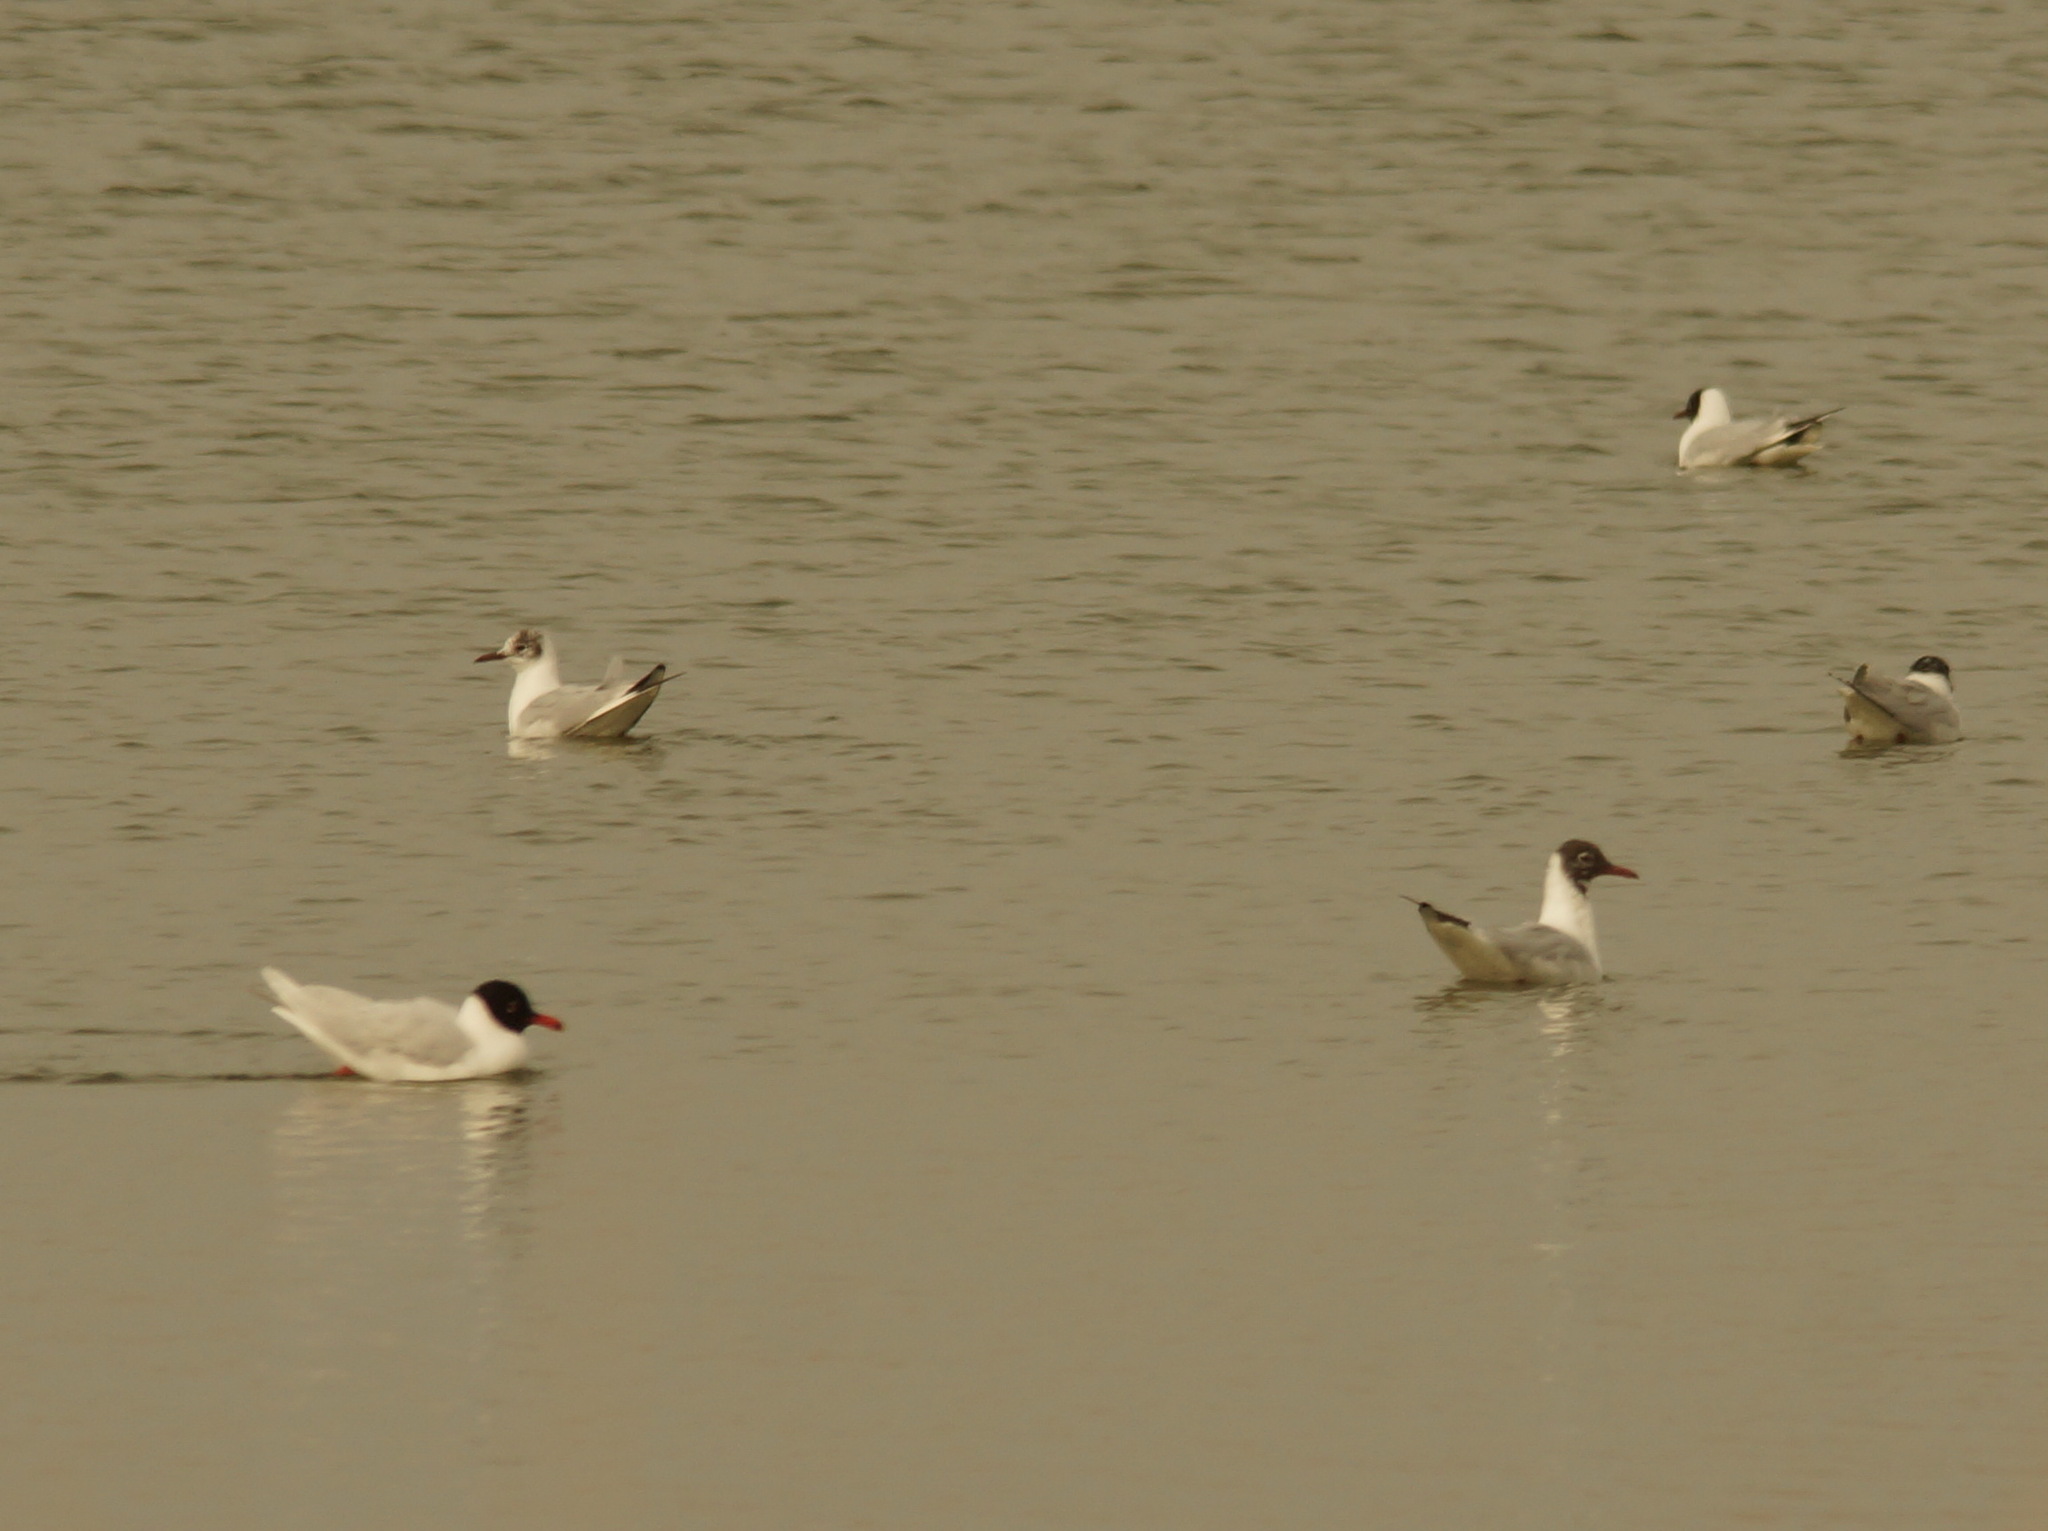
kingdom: Animalia
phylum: Chordata
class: Aves
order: Charadriiformes
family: Laridae
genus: Chroicocephalus
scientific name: Chroicocephalus ridibundus
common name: Black-headed gull
